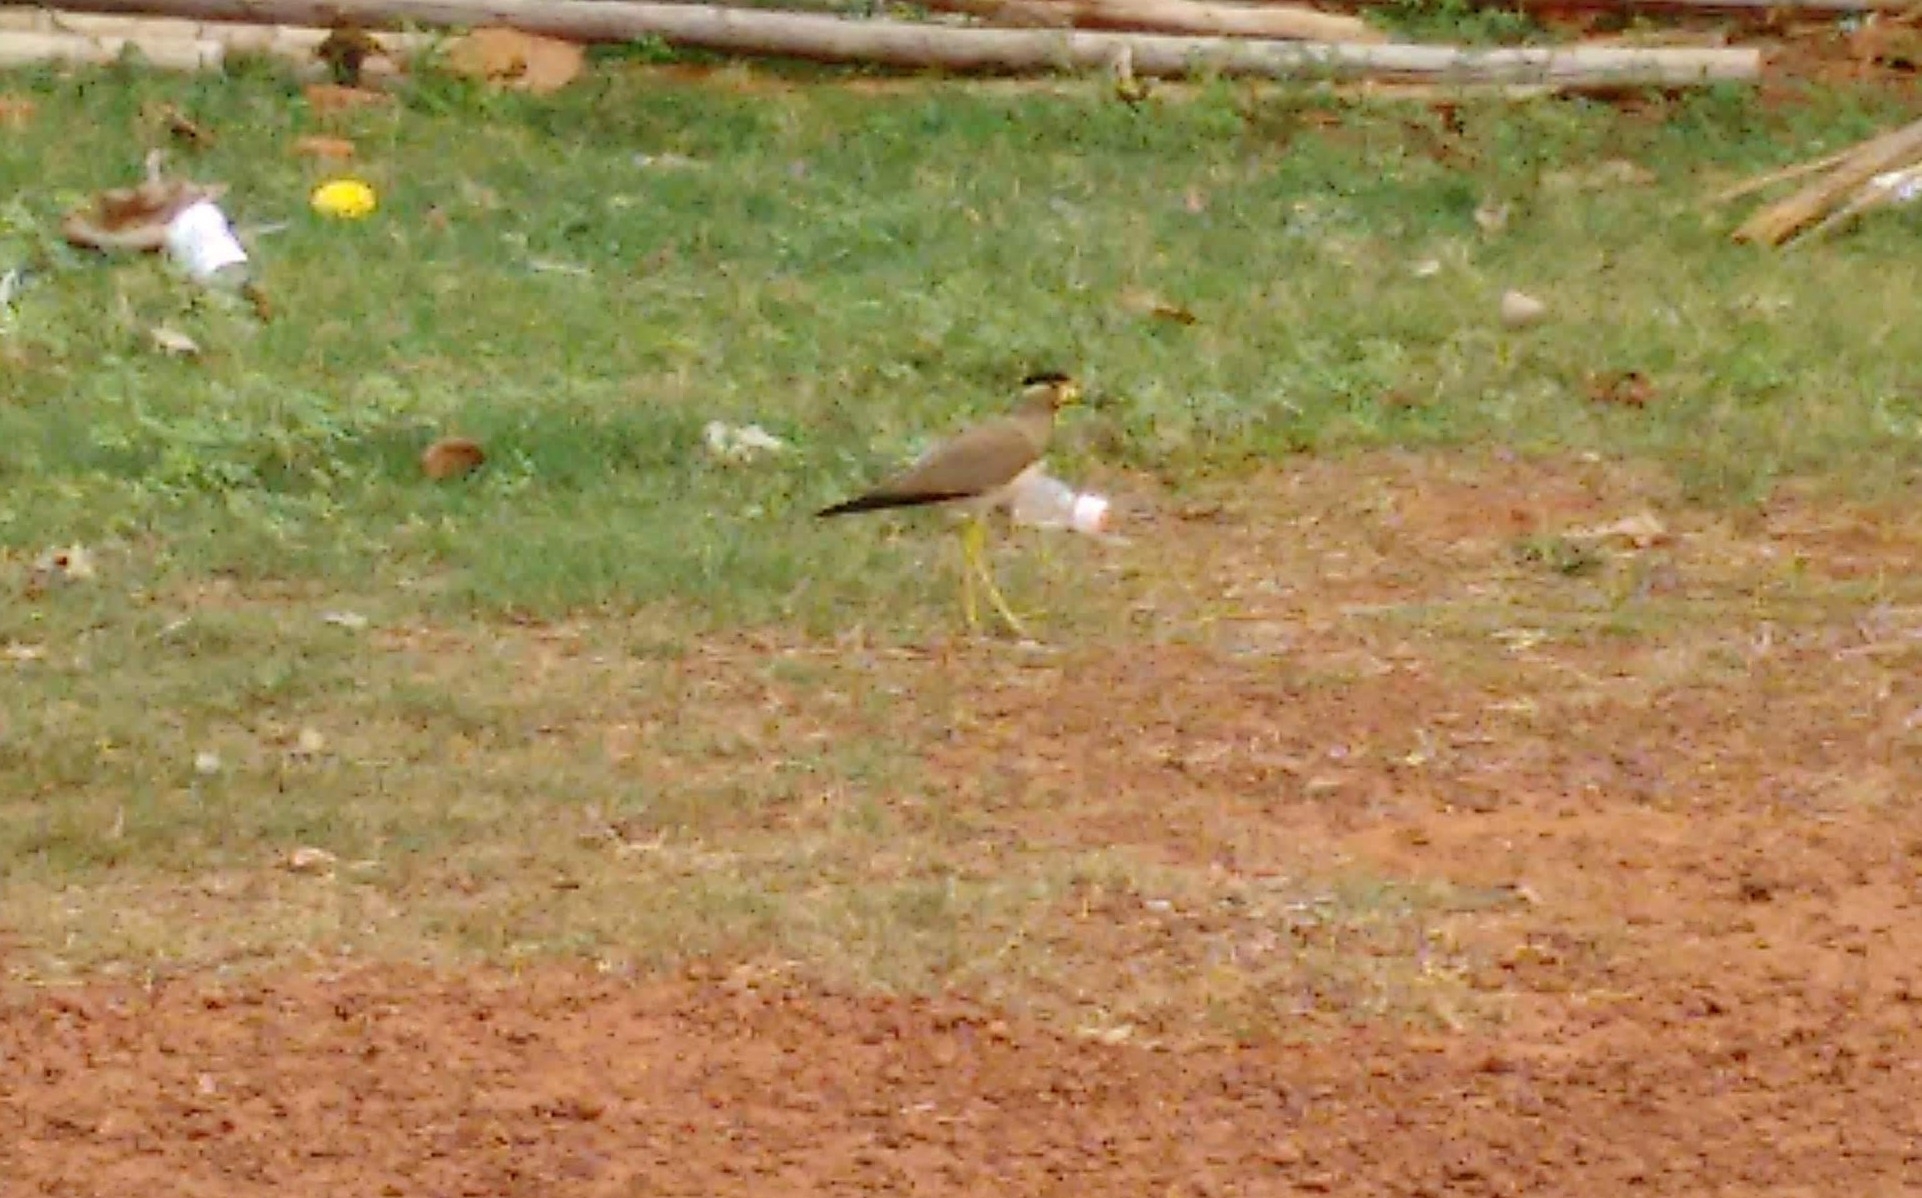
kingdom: Animalia
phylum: Chordata
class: Aves
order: Charadriiformes
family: Charadriidae
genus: Vanellus
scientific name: Vanellus malabaricus
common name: Yellow-wattled lapwing
